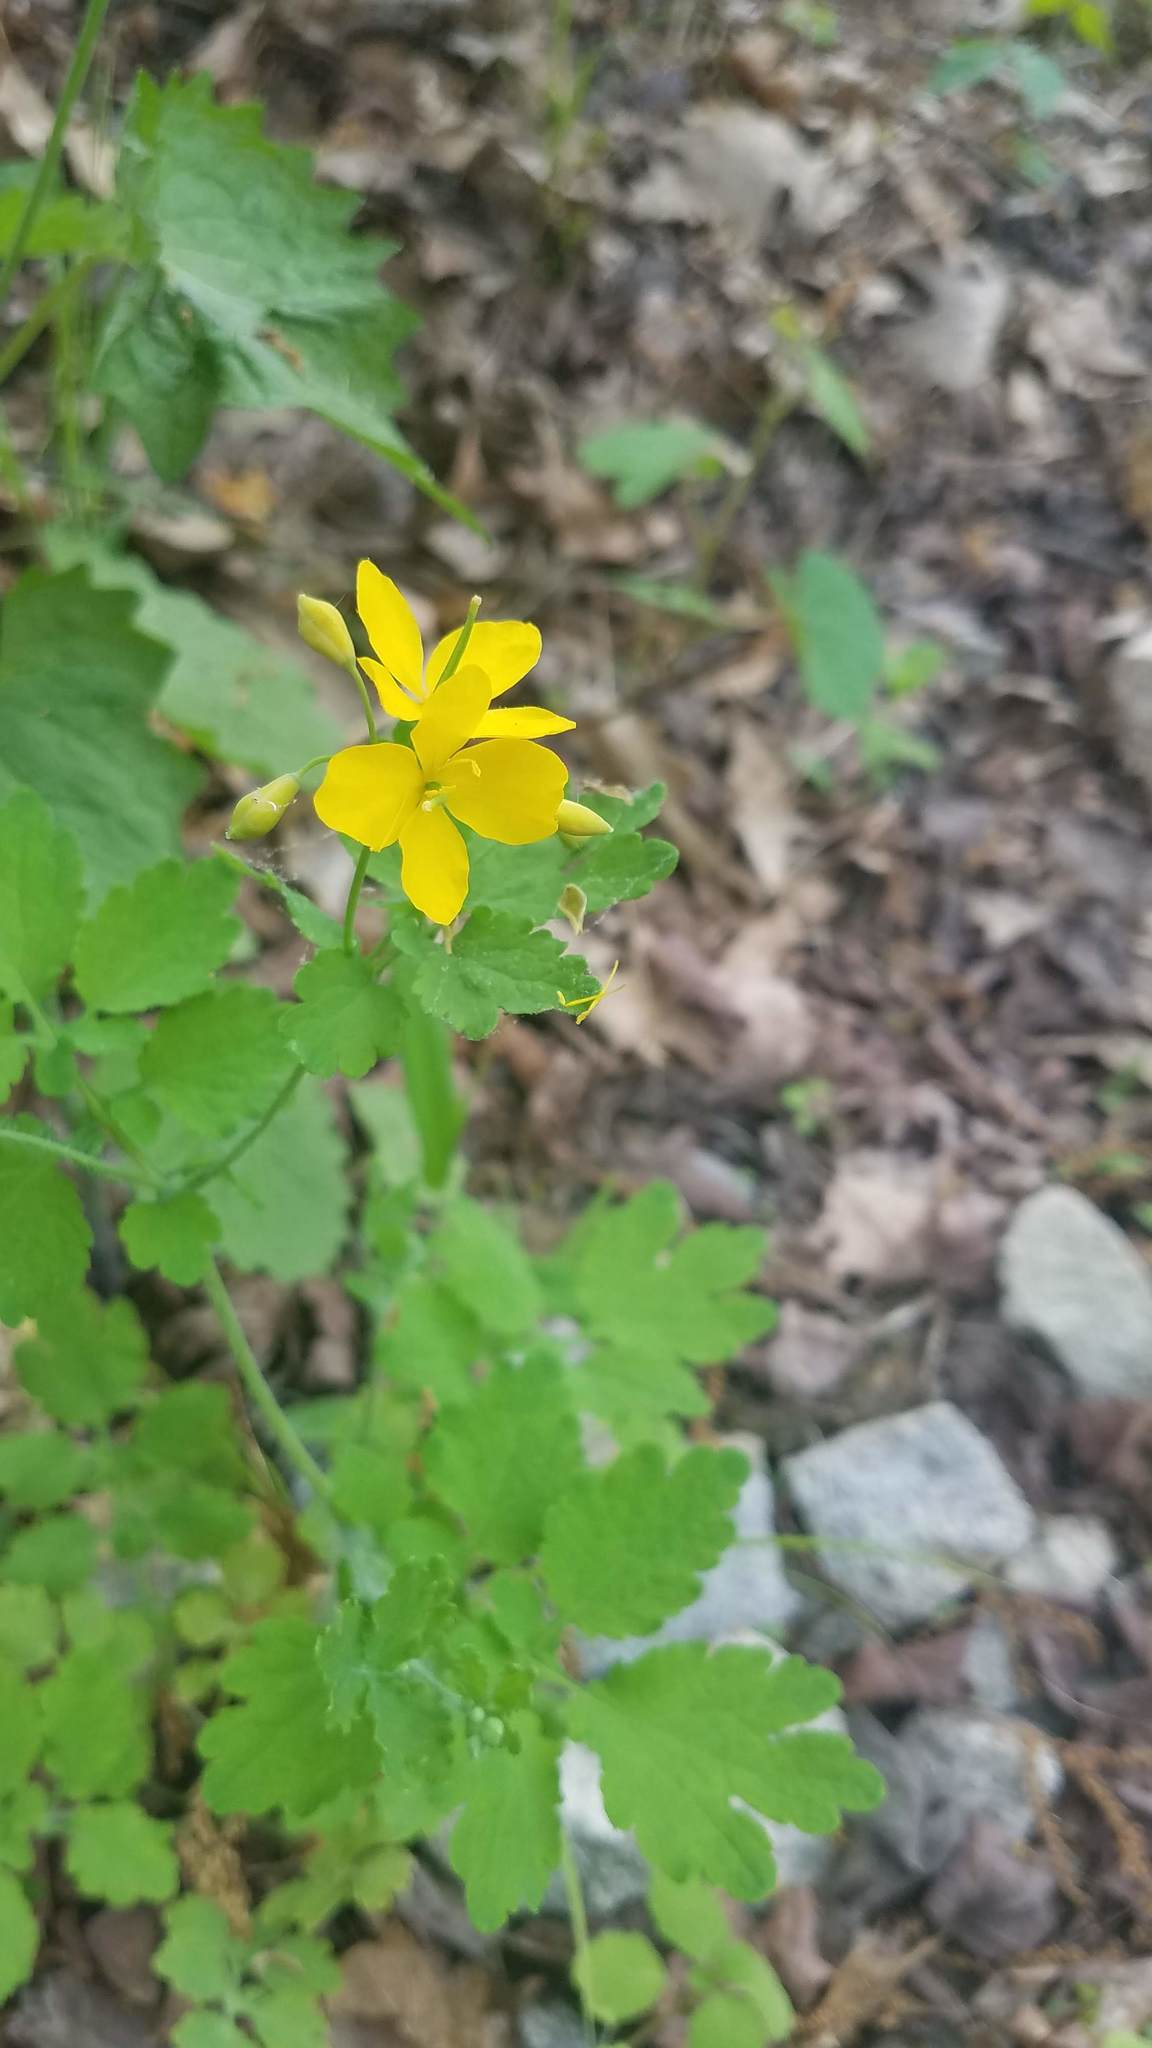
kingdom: Plantae
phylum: Tracheophyta
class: Magnoliopsida
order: Ranunculales
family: Papaveraceae
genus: Chelidonium
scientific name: Chelidonium majus
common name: Greater celandine
